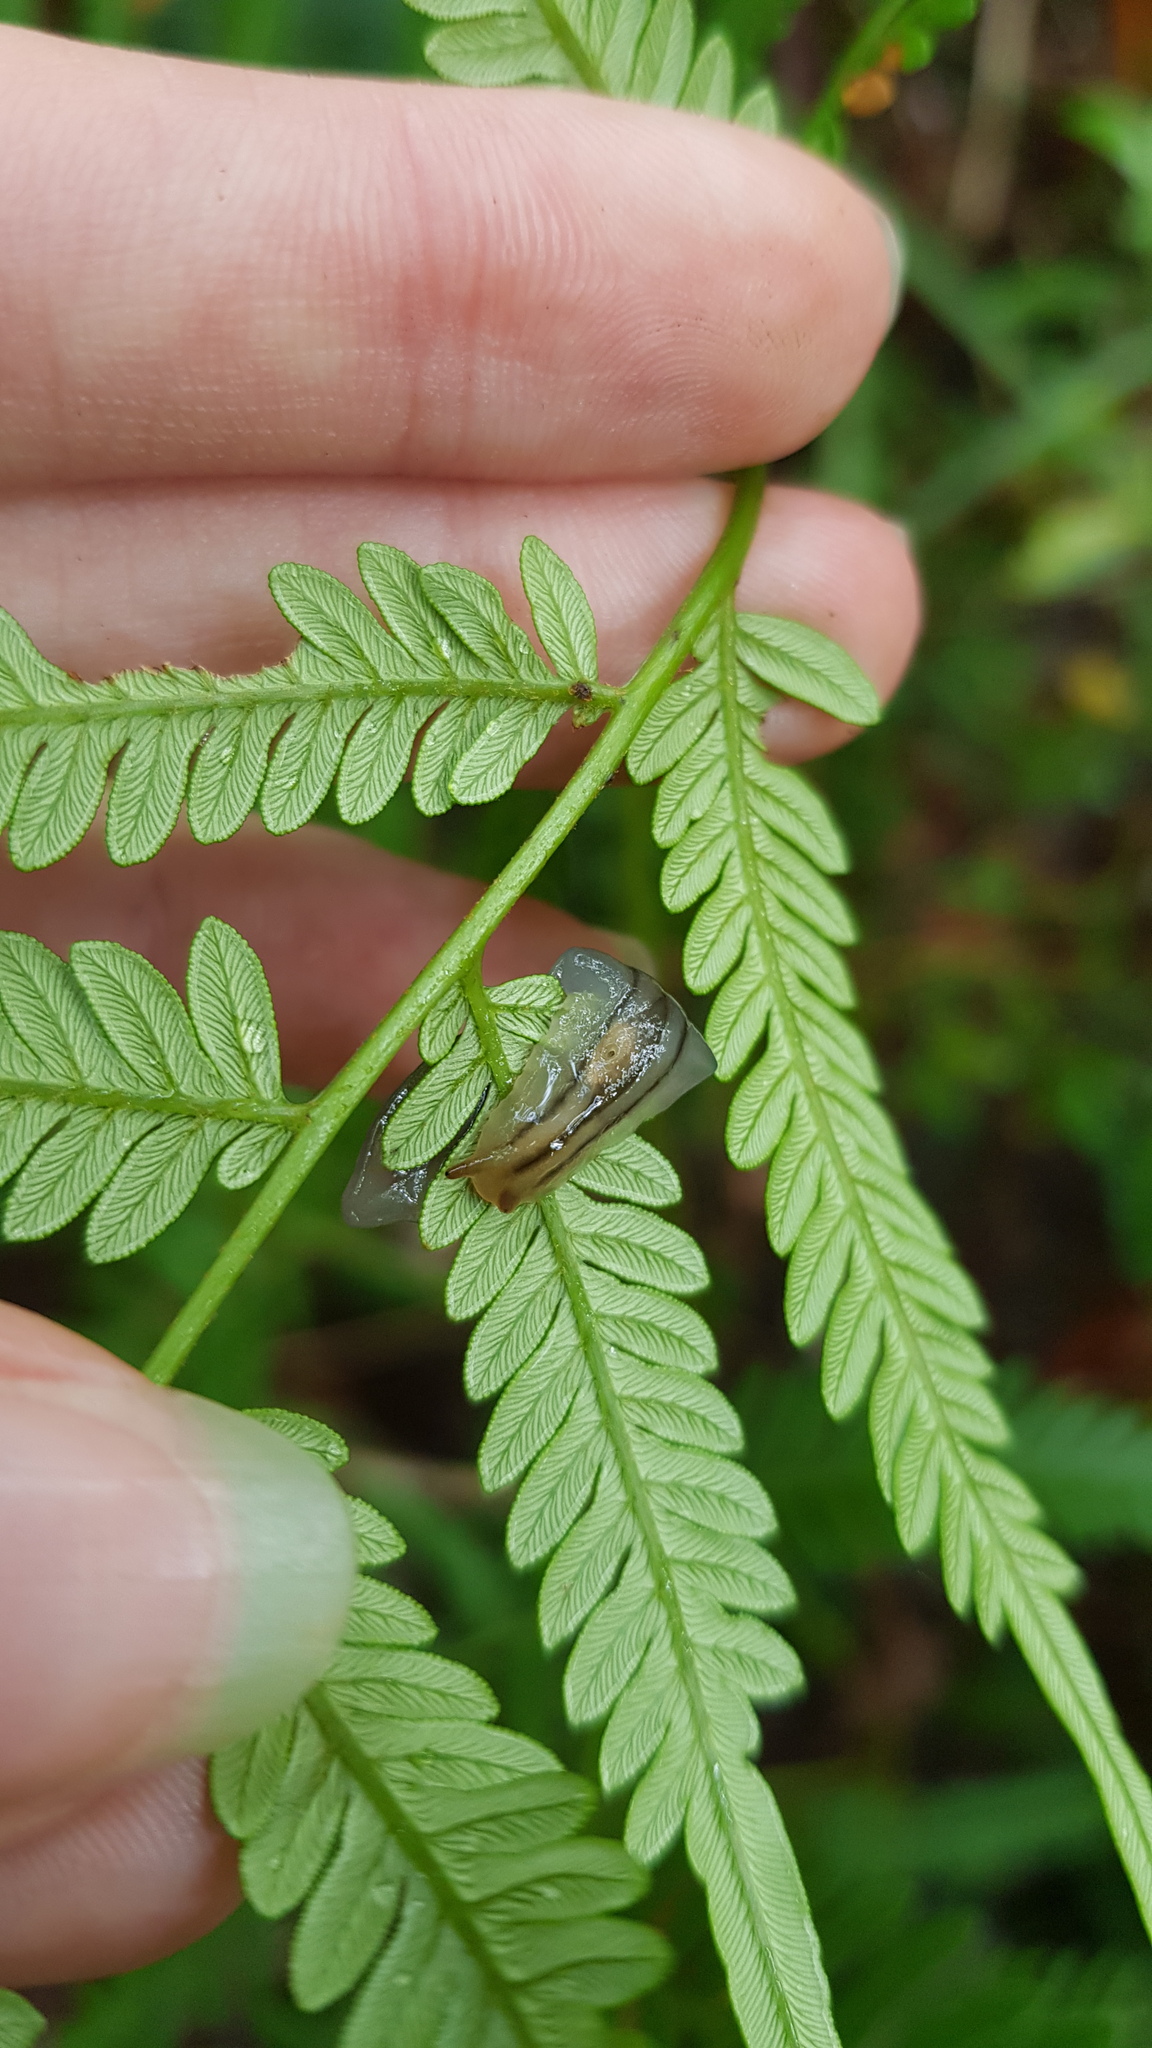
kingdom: Animalia
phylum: Mollusca
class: Gastropoda
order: Stylommatophora
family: Athoracophoridae
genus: Triboniophorus
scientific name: Triboniophorus graeffei
